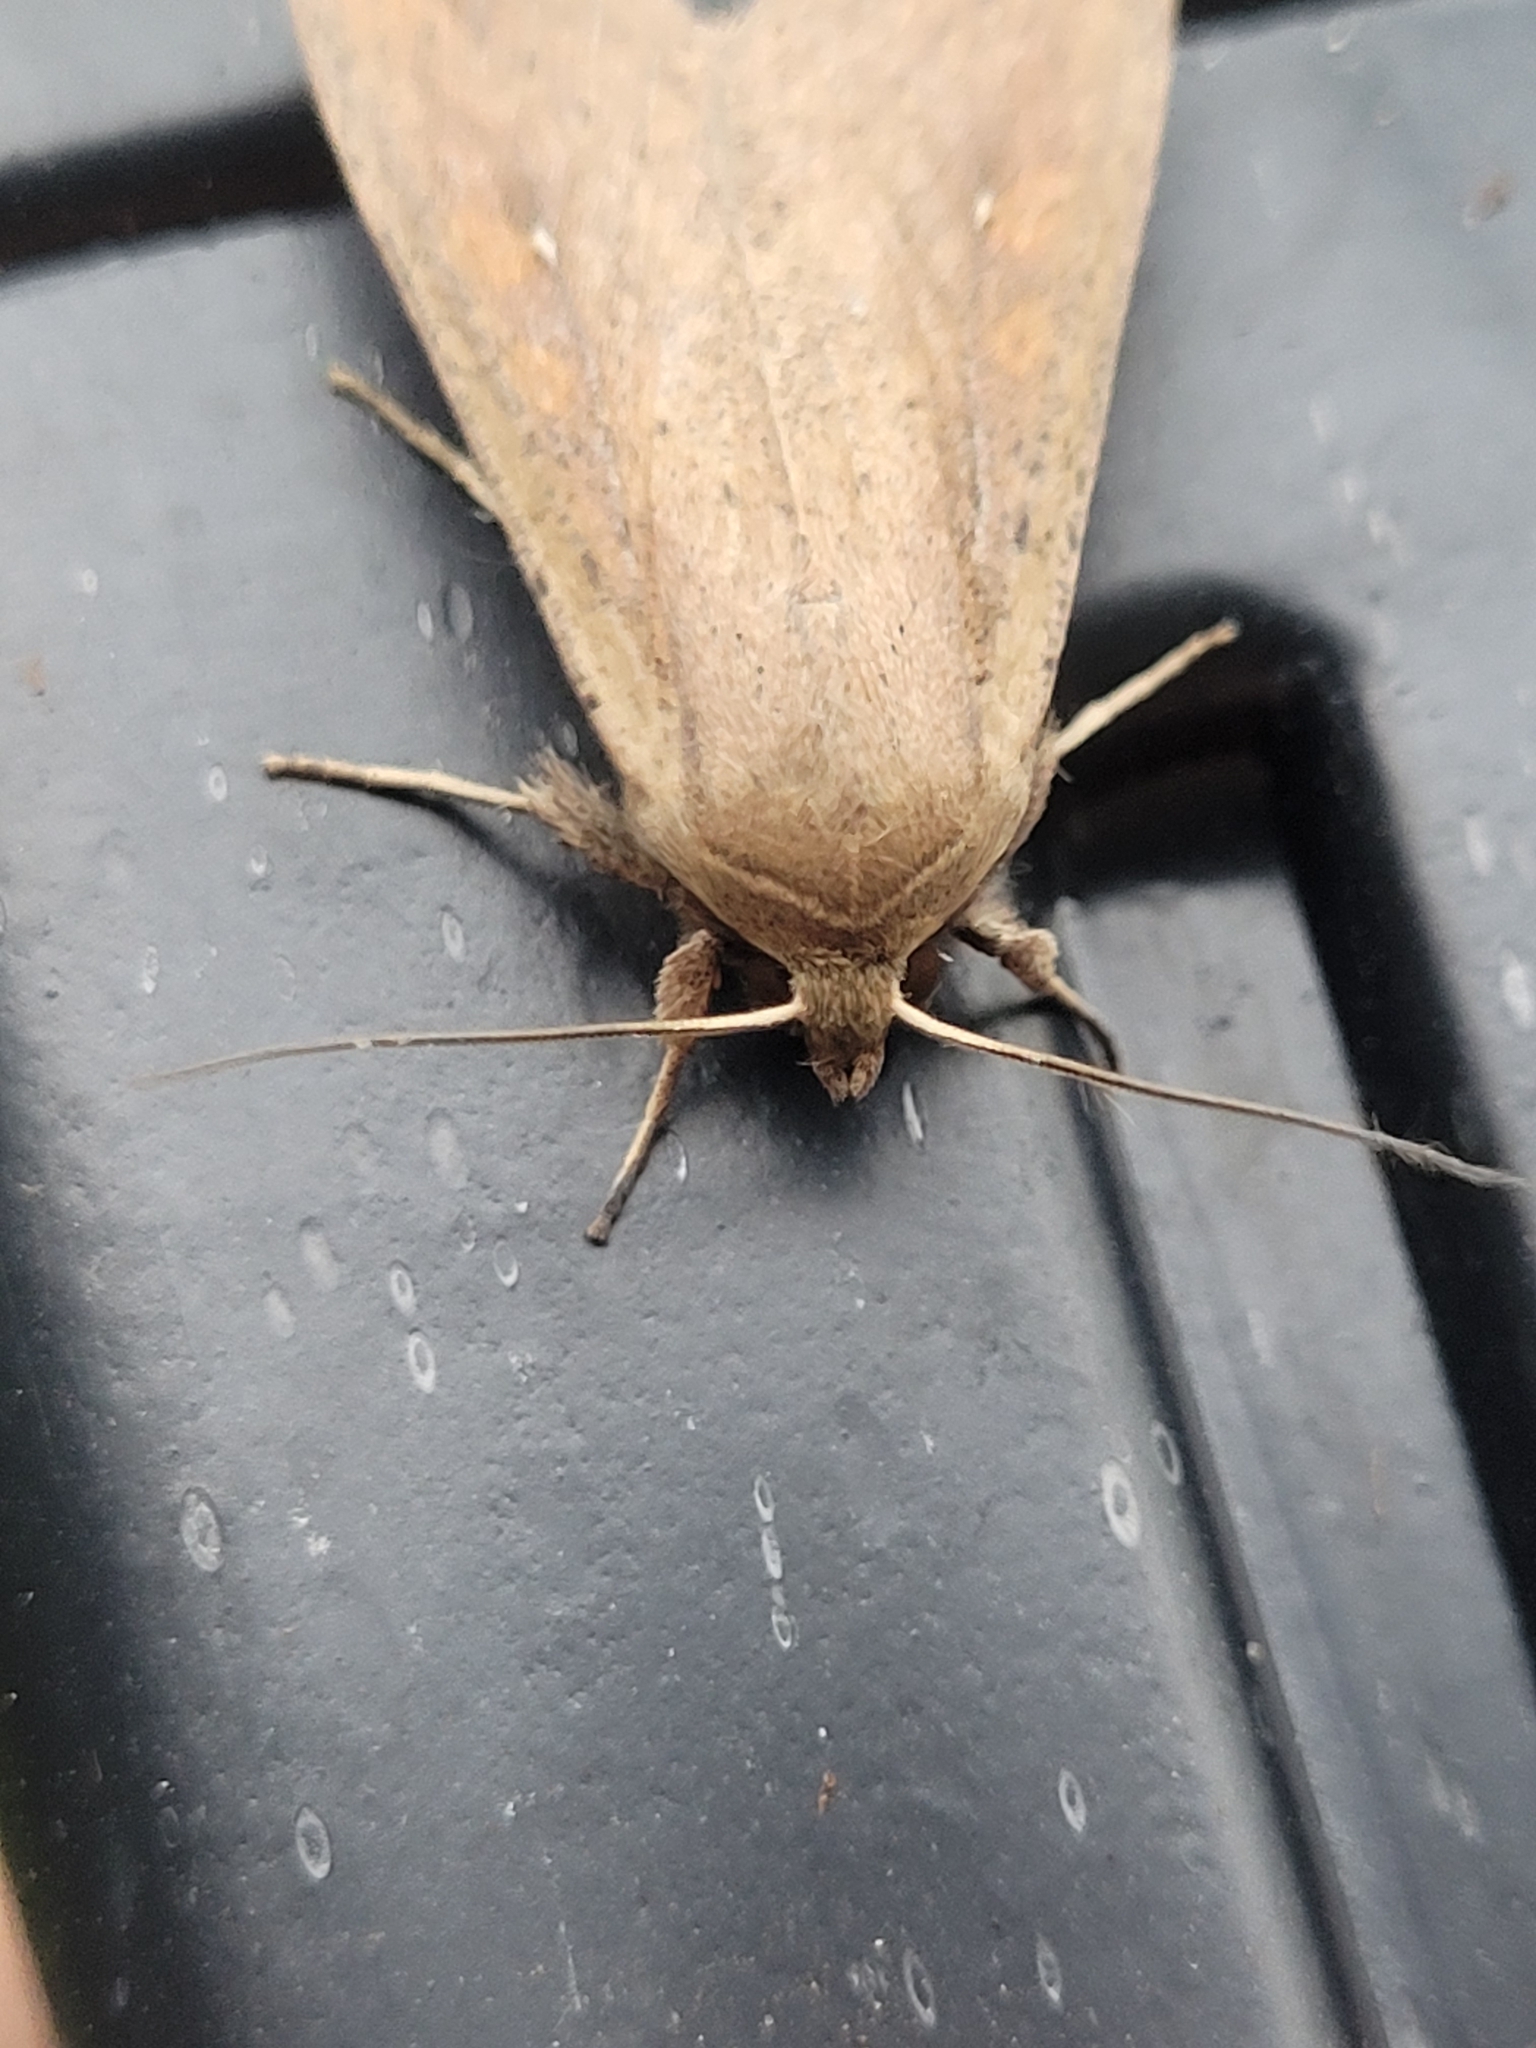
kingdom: Animalia
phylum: Arthropoda
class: Insecta
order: Lepidoptera
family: Noctuidae
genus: Mythimna
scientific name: Mythimna unipuncta
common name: White-speck
